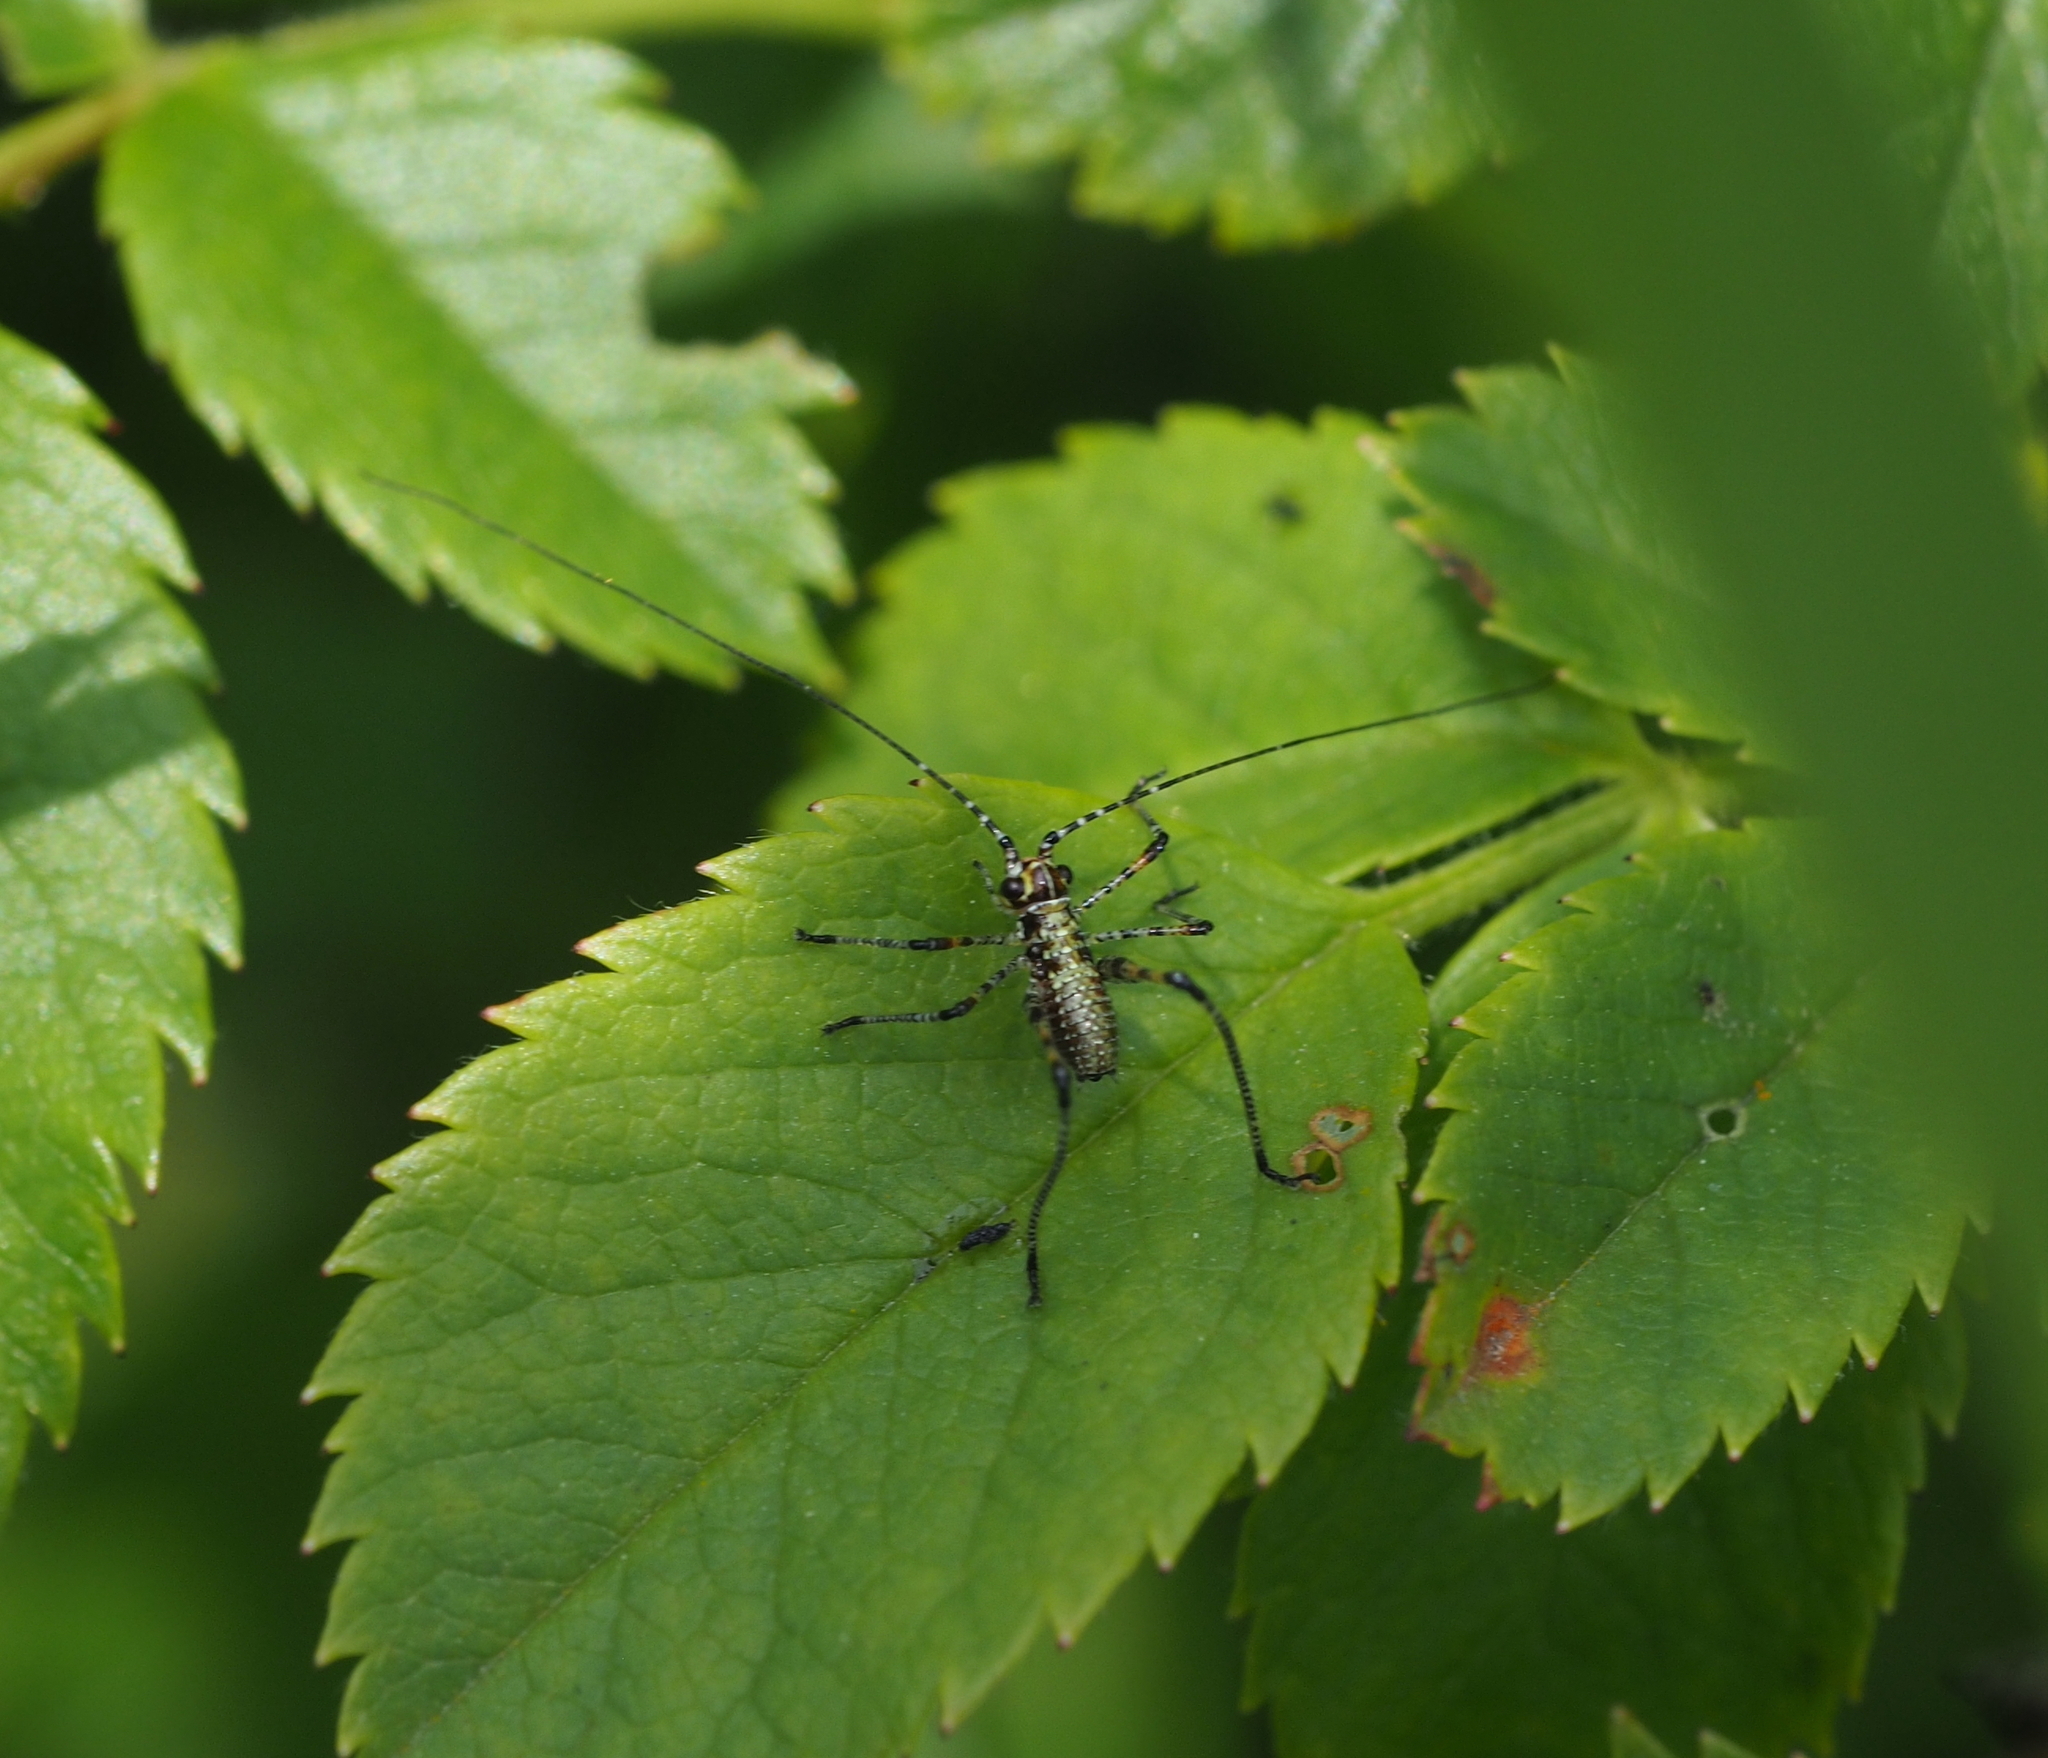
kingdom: Animalia
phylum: Arthropoda
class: Insecta
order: Orthoptera
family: Tettigoniidae
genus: Phaneroptera
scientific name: Phaneroptera nana
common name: Southern sickle bush-cricket
